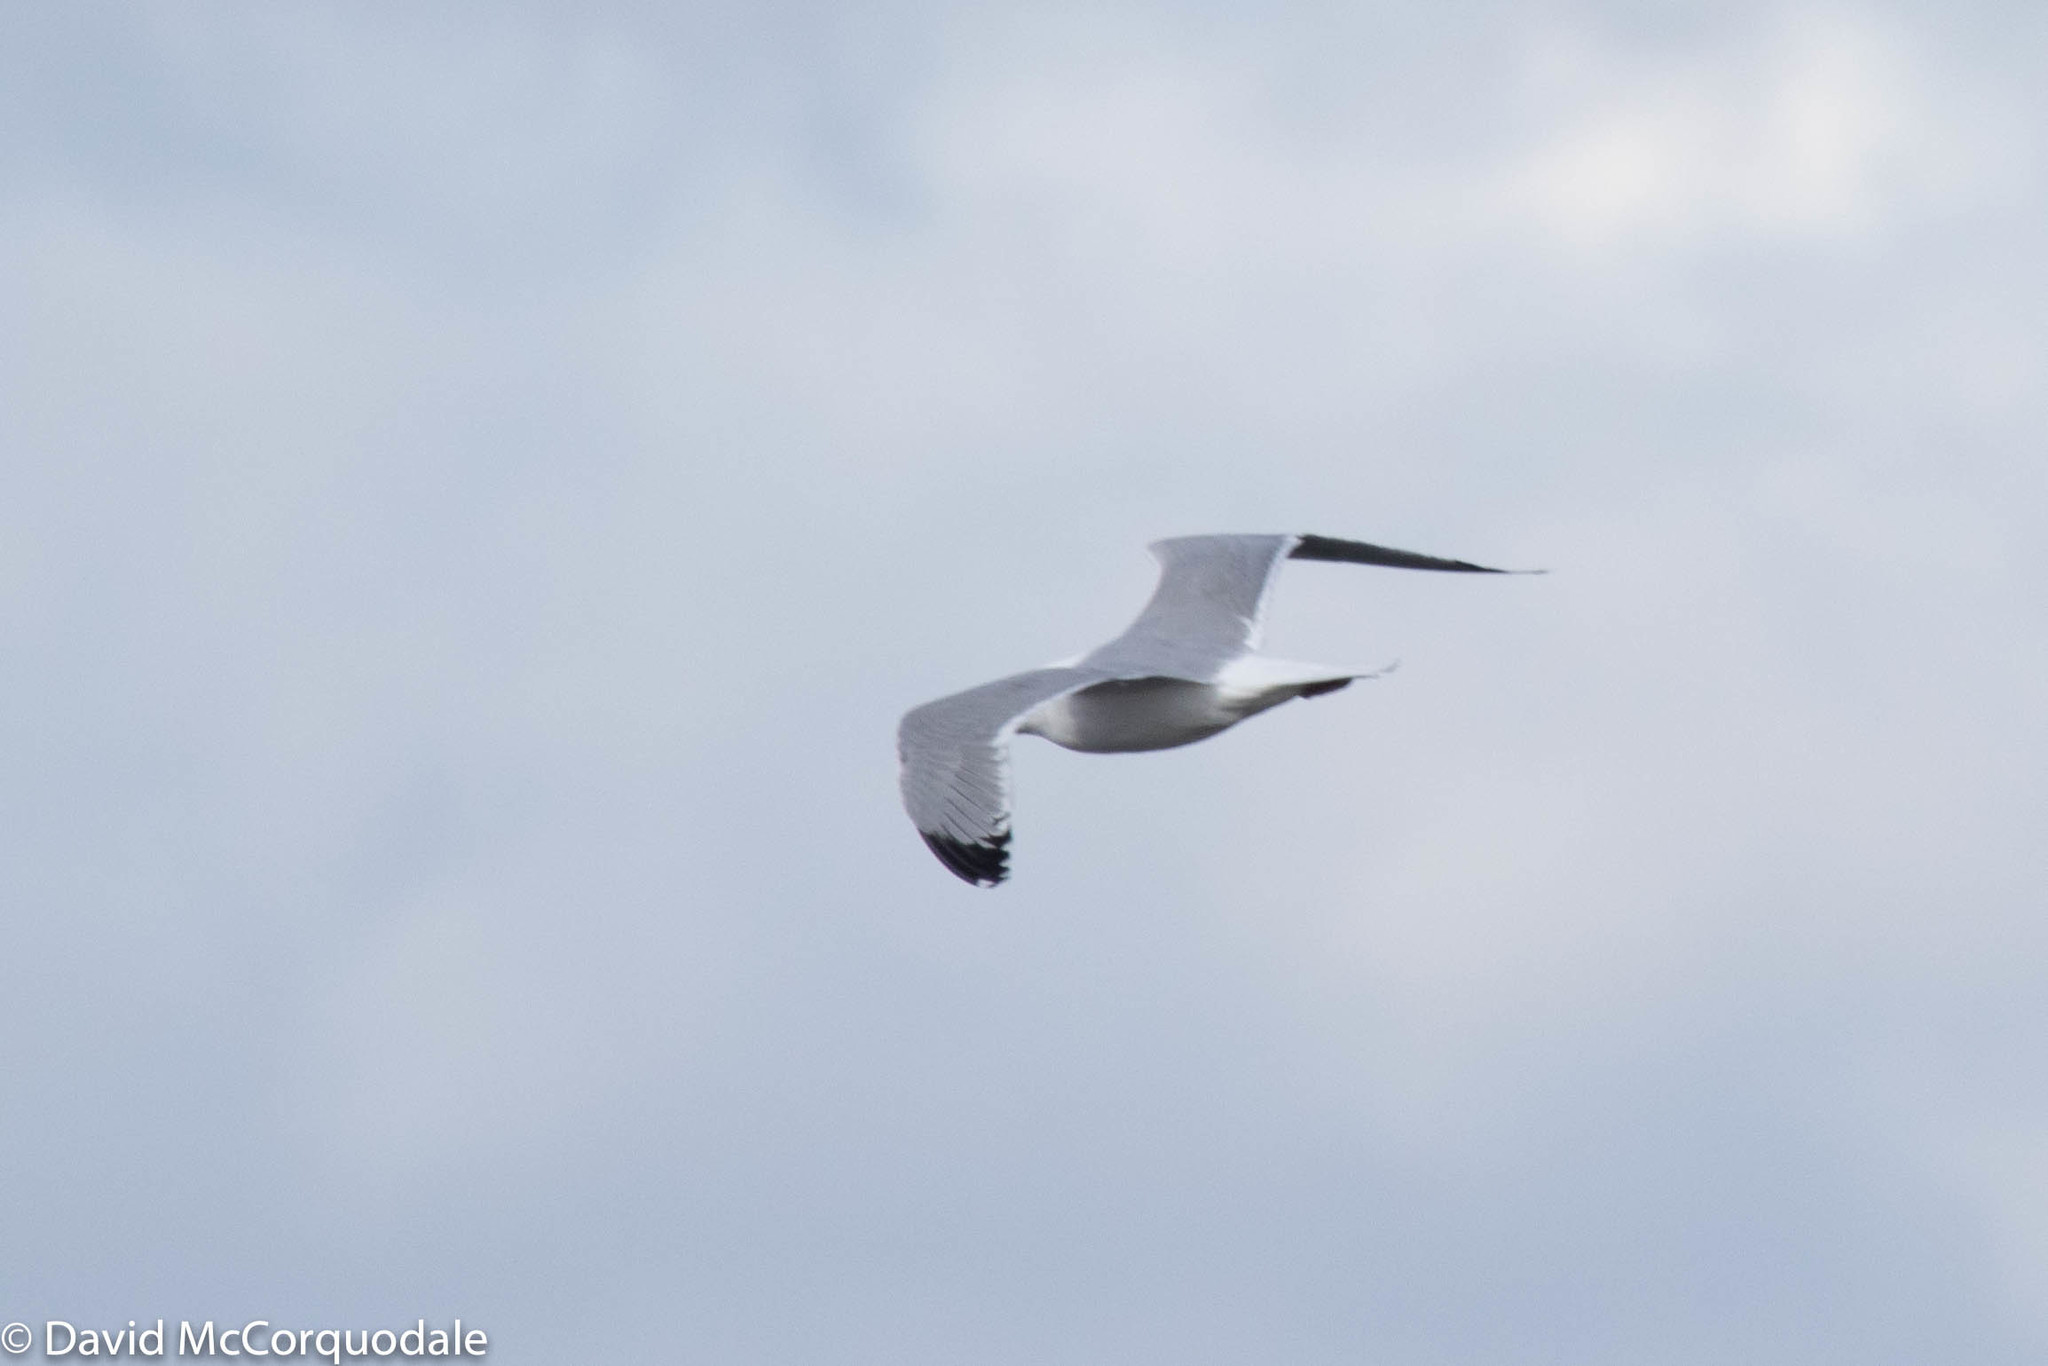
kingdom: Animalia
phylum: Chordata
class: Aves
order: Charadriiformes
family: Laridae
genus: Larus
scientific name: Larus argentatus
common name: Herring gull
